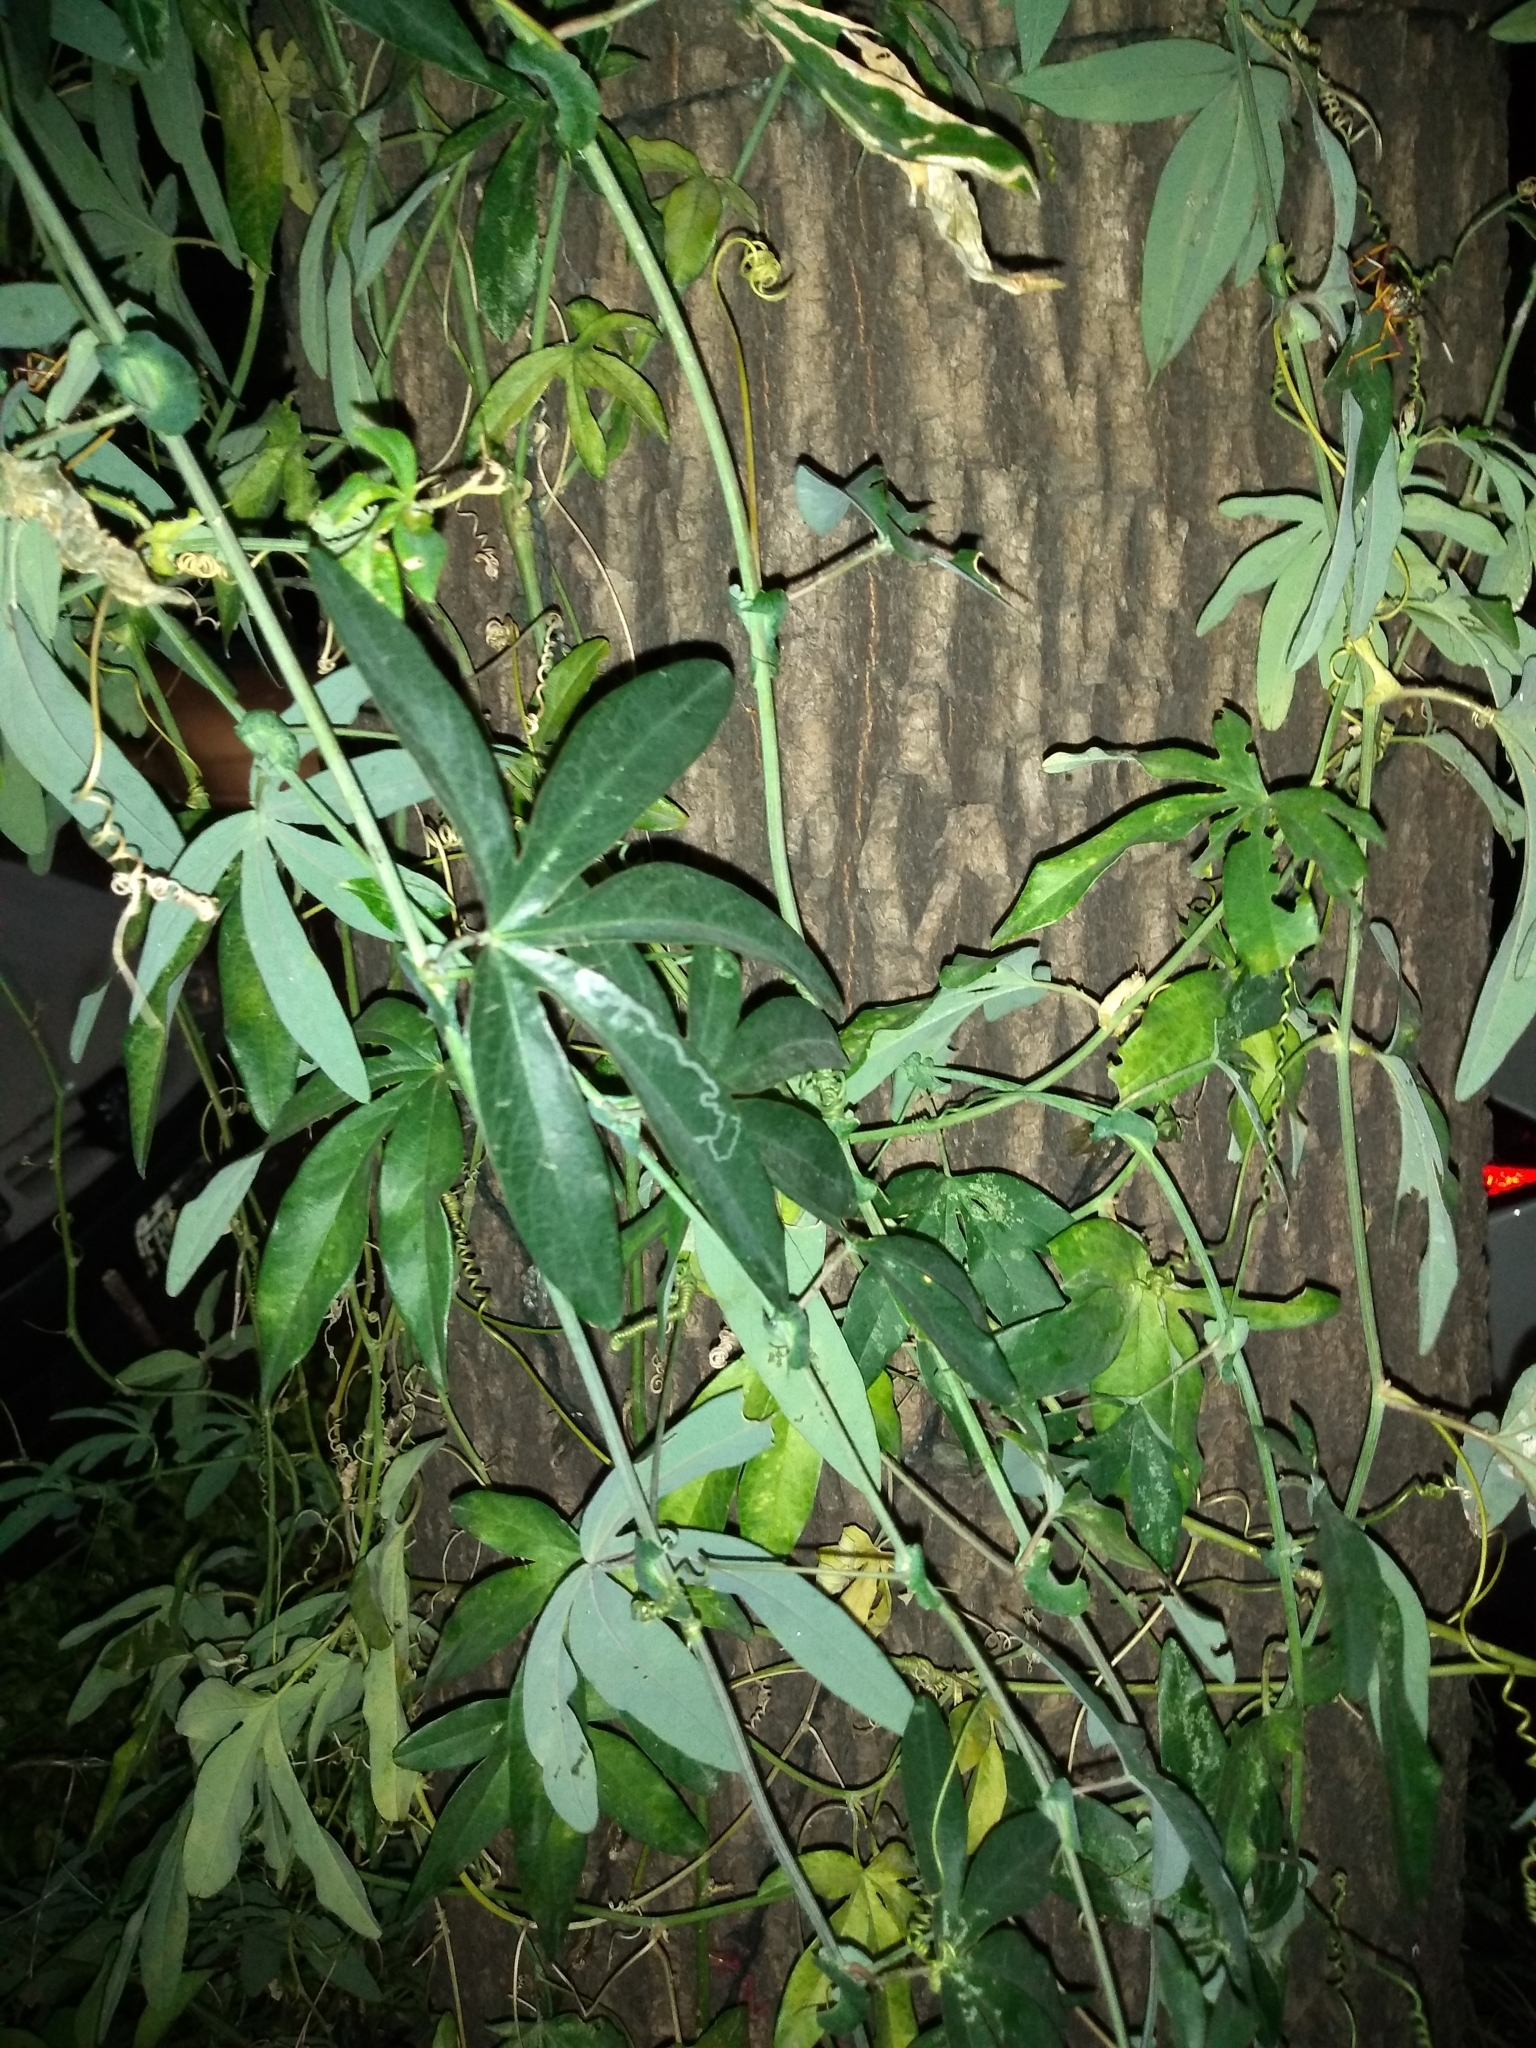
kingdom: Plantae
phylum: Tracheophyta
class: Magnoliopsida
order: Malpighiales
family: Passifloraceae
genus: Passiflora
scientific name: Passiflora caerulea
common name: Blue passionflower
